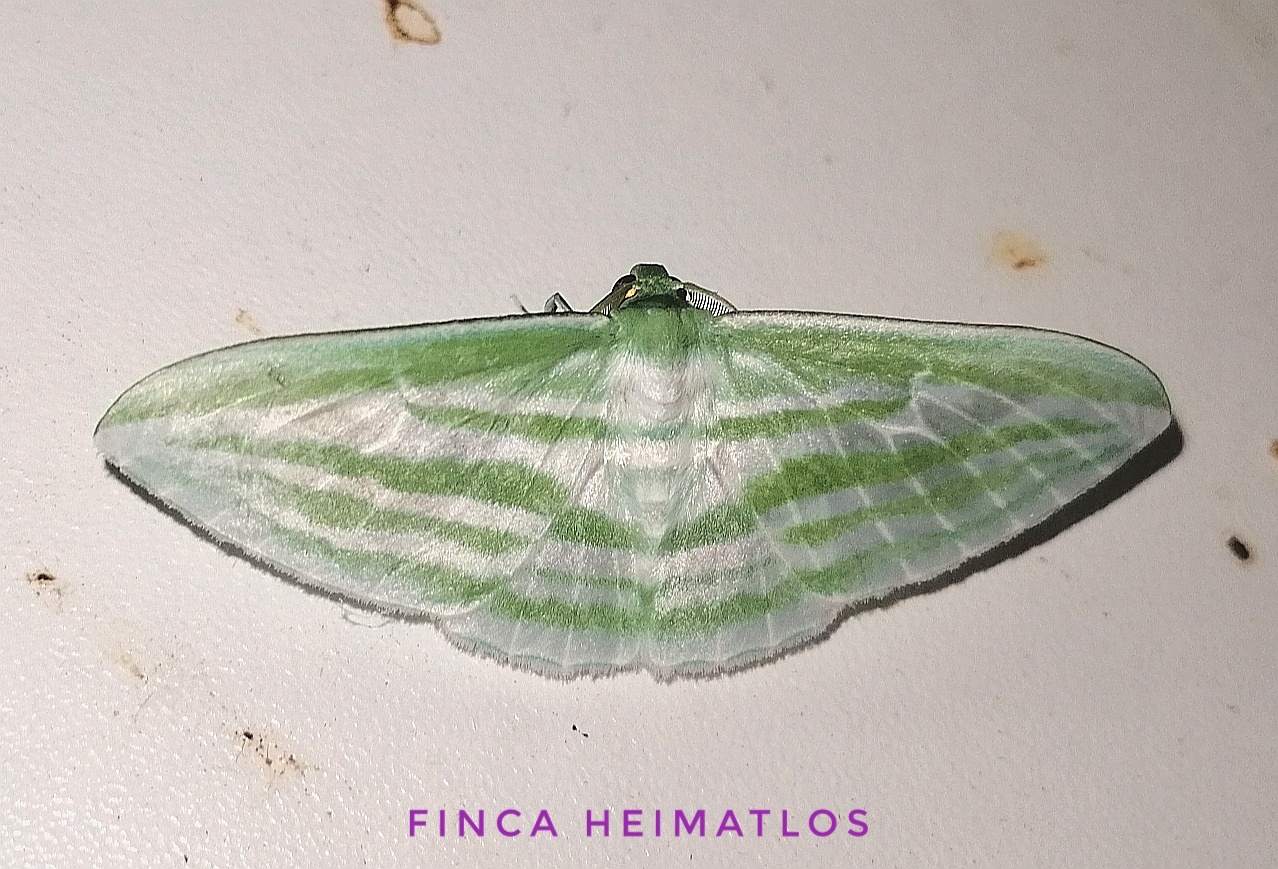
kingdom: Animalia
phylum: Arthropoda
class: Insecta
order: Lepidoptera
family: Geometridae
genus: Dyspteris
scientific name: Dyspteris tenuivitta
